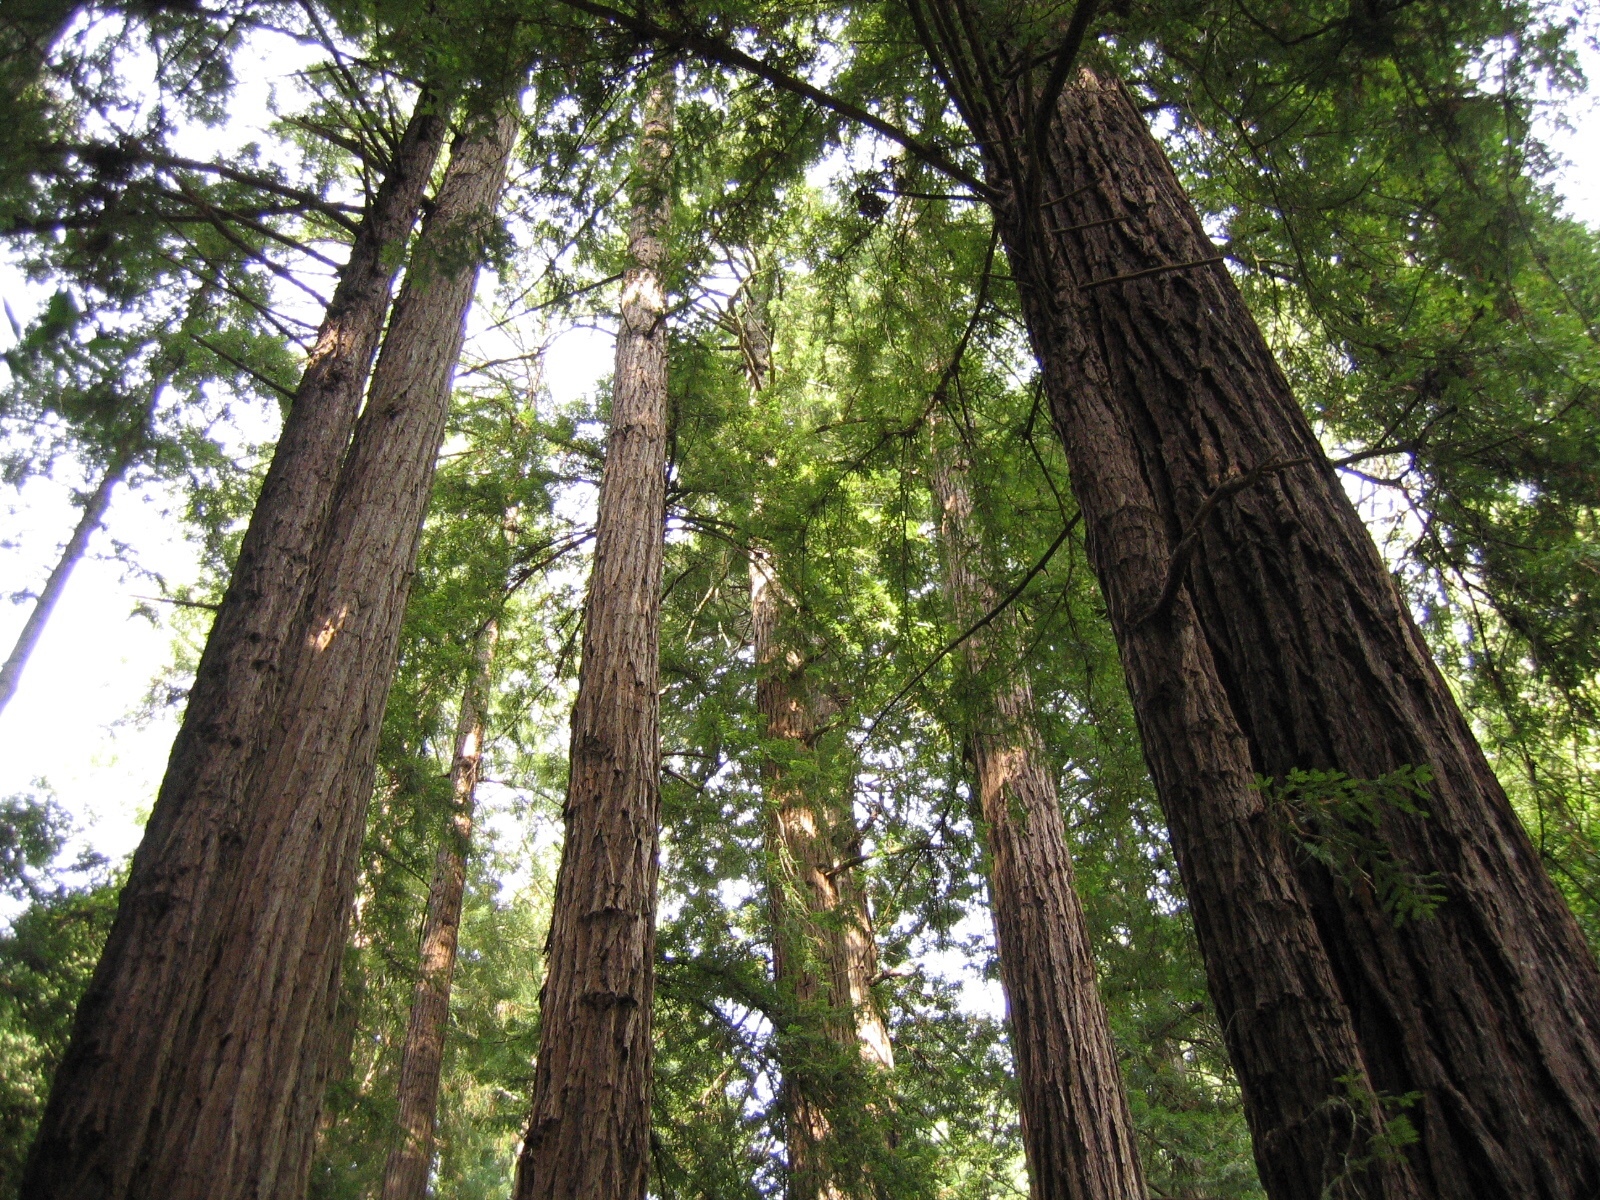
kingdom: Plantae
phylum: Tracheophyta
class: Pinopsida
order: Pinales
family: Cupressaceae
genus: Sequoia
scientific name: Sequoia sempervirens
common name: Coast redwood
